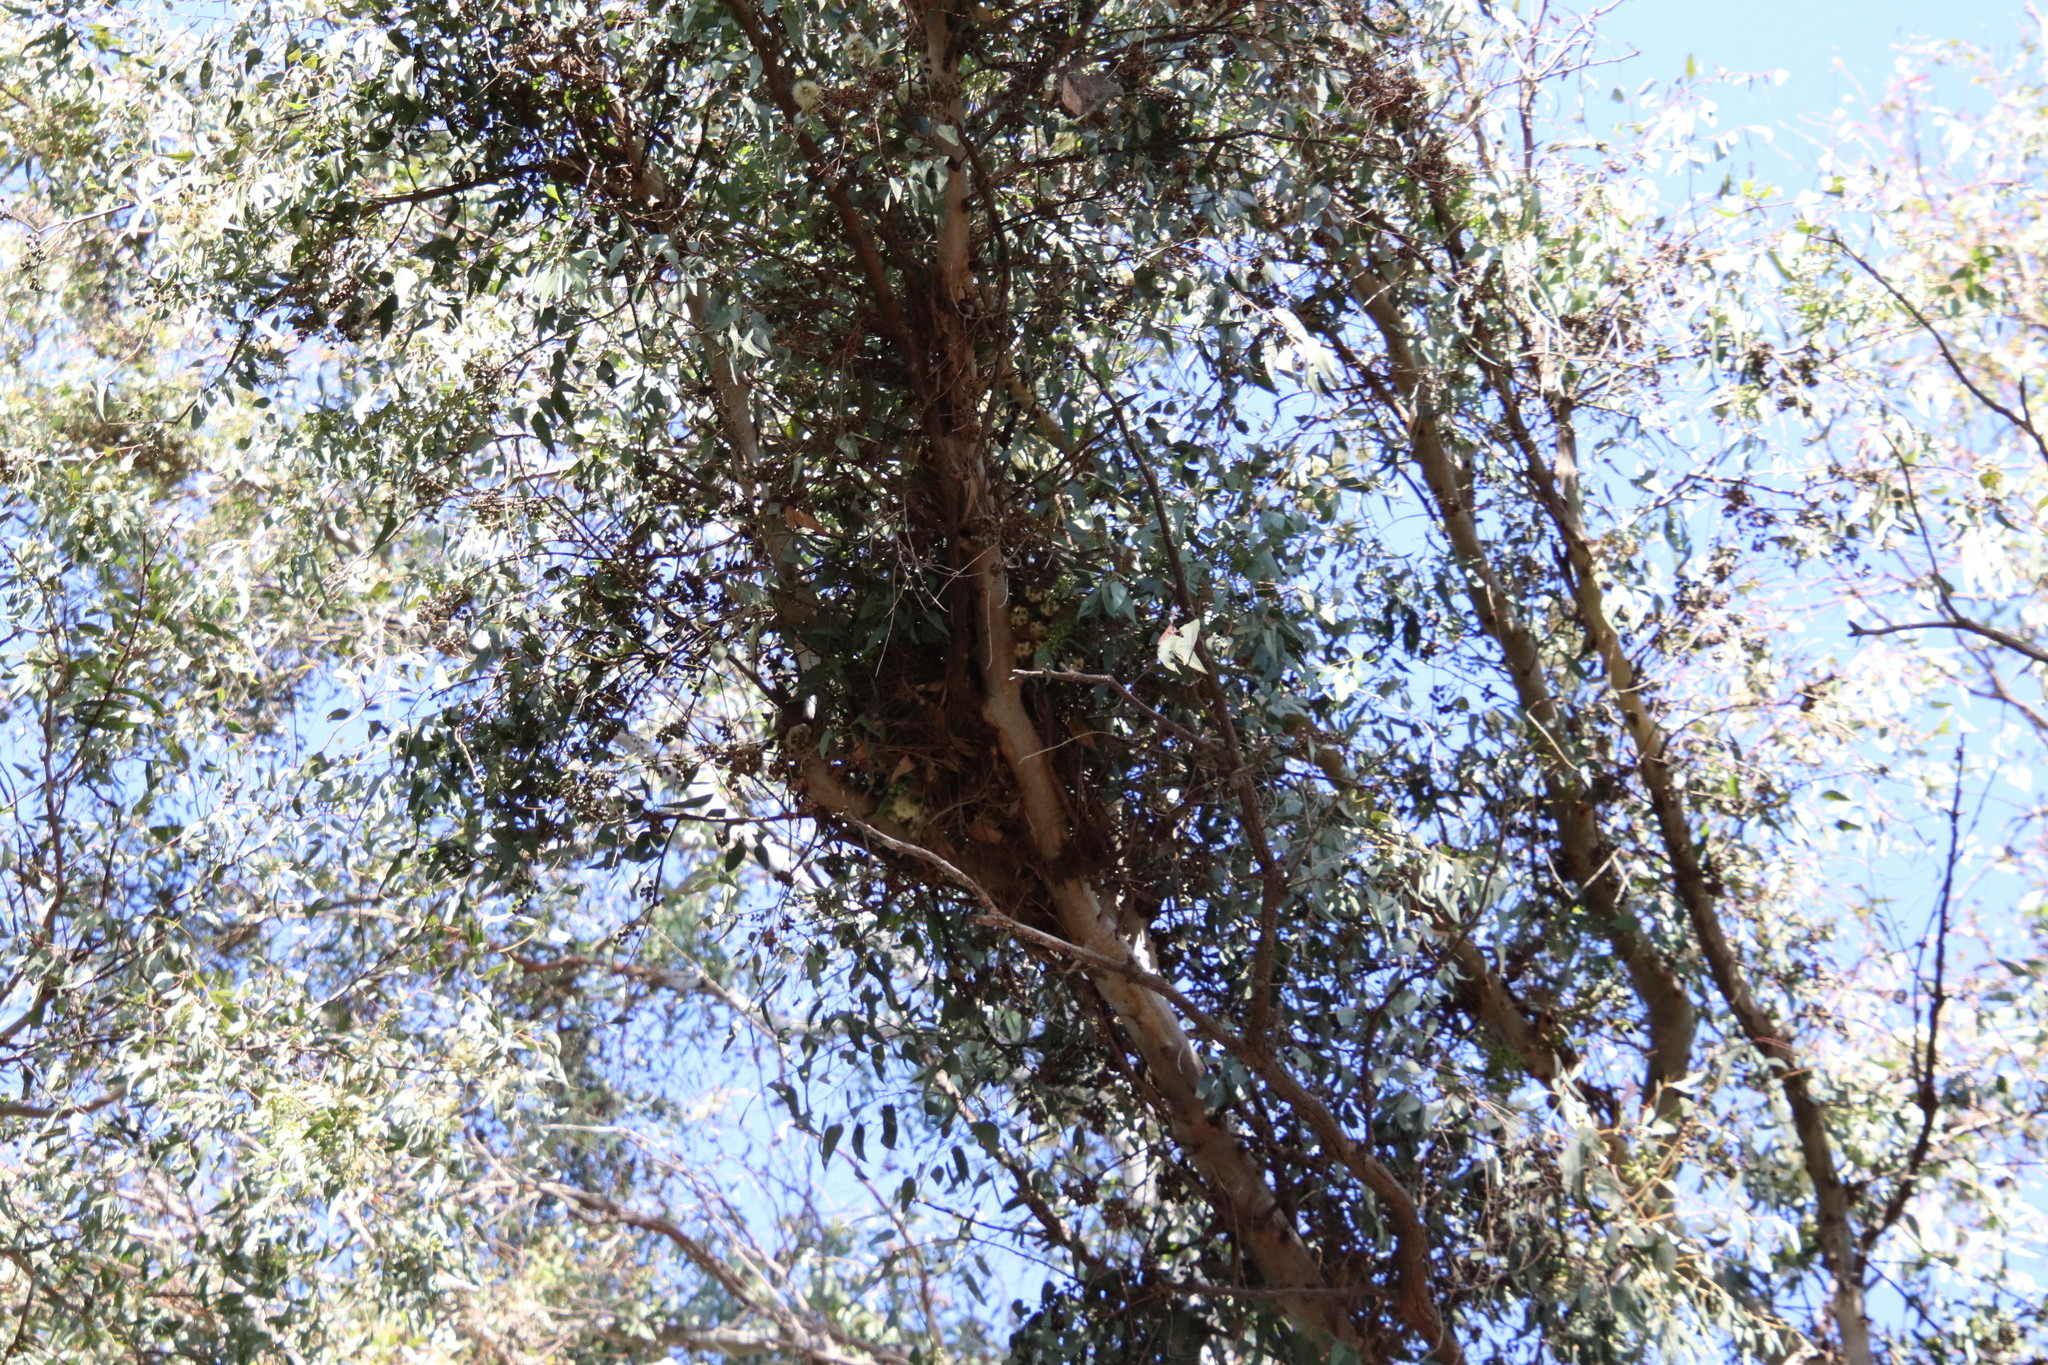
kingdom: Animalia
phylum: Chordata
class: Aves
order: Accipitriformes
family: Accipitridae
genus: Accipiter
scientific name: Accipiter cooperii
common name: Cooper's hawk
